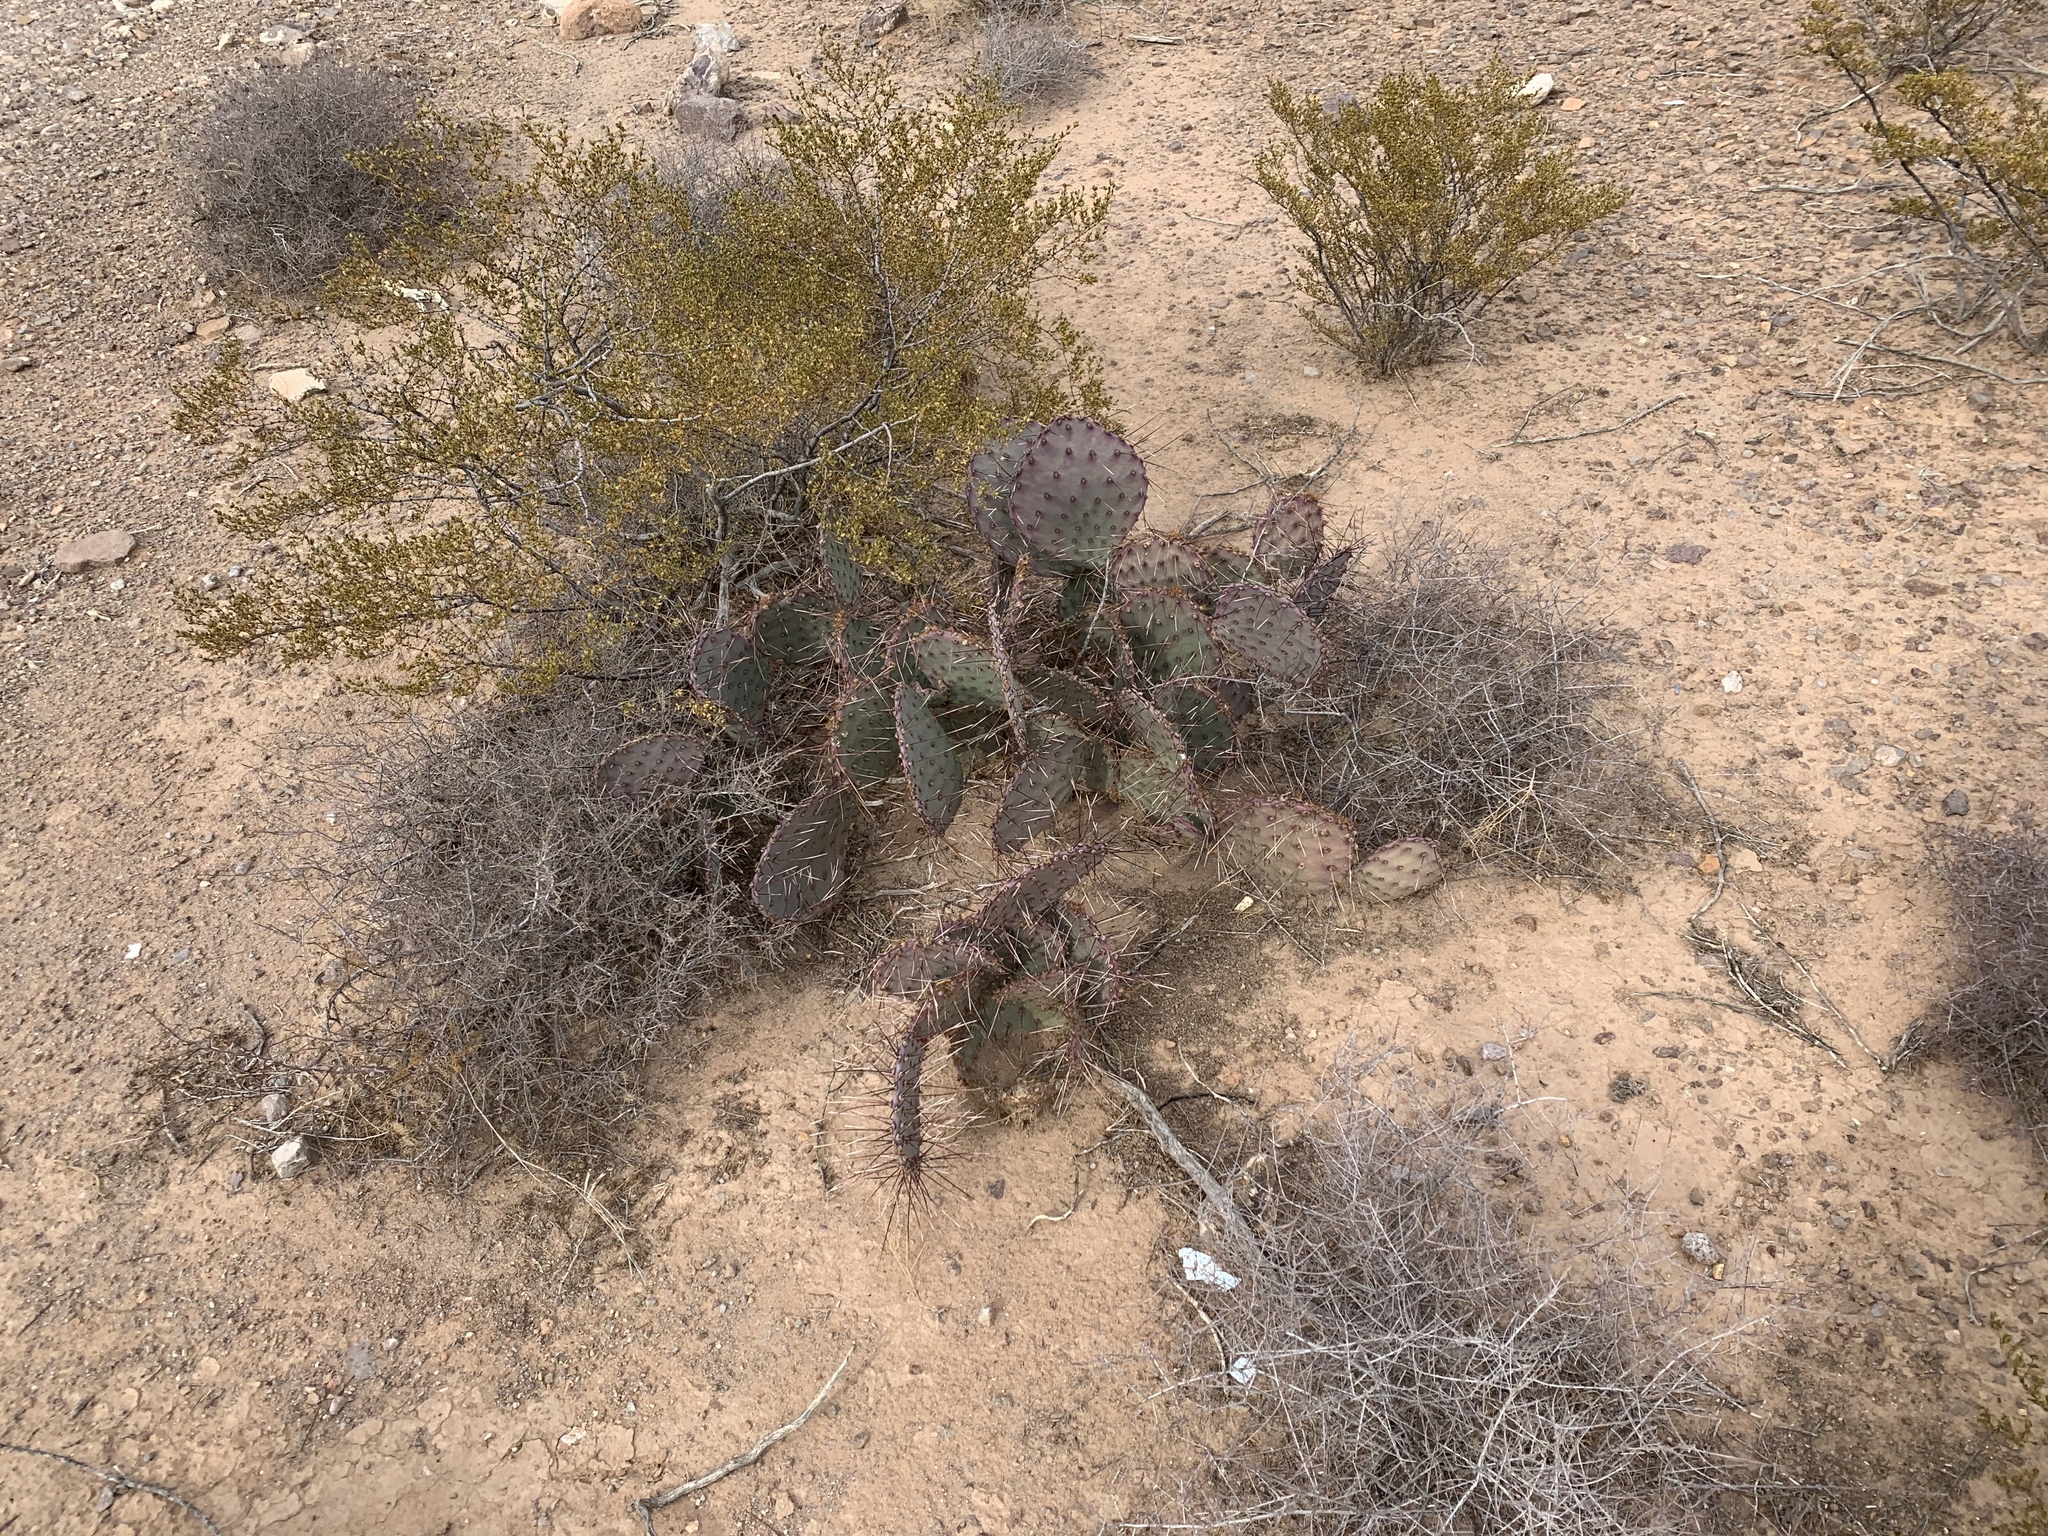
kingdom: Plantae
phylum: Tracheophyta
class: Magnoliopsida
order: Caryophyllales
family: Cactaceae
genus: Opuntia
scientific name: Opuntia macrocentra
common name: Purple prickly-pear
